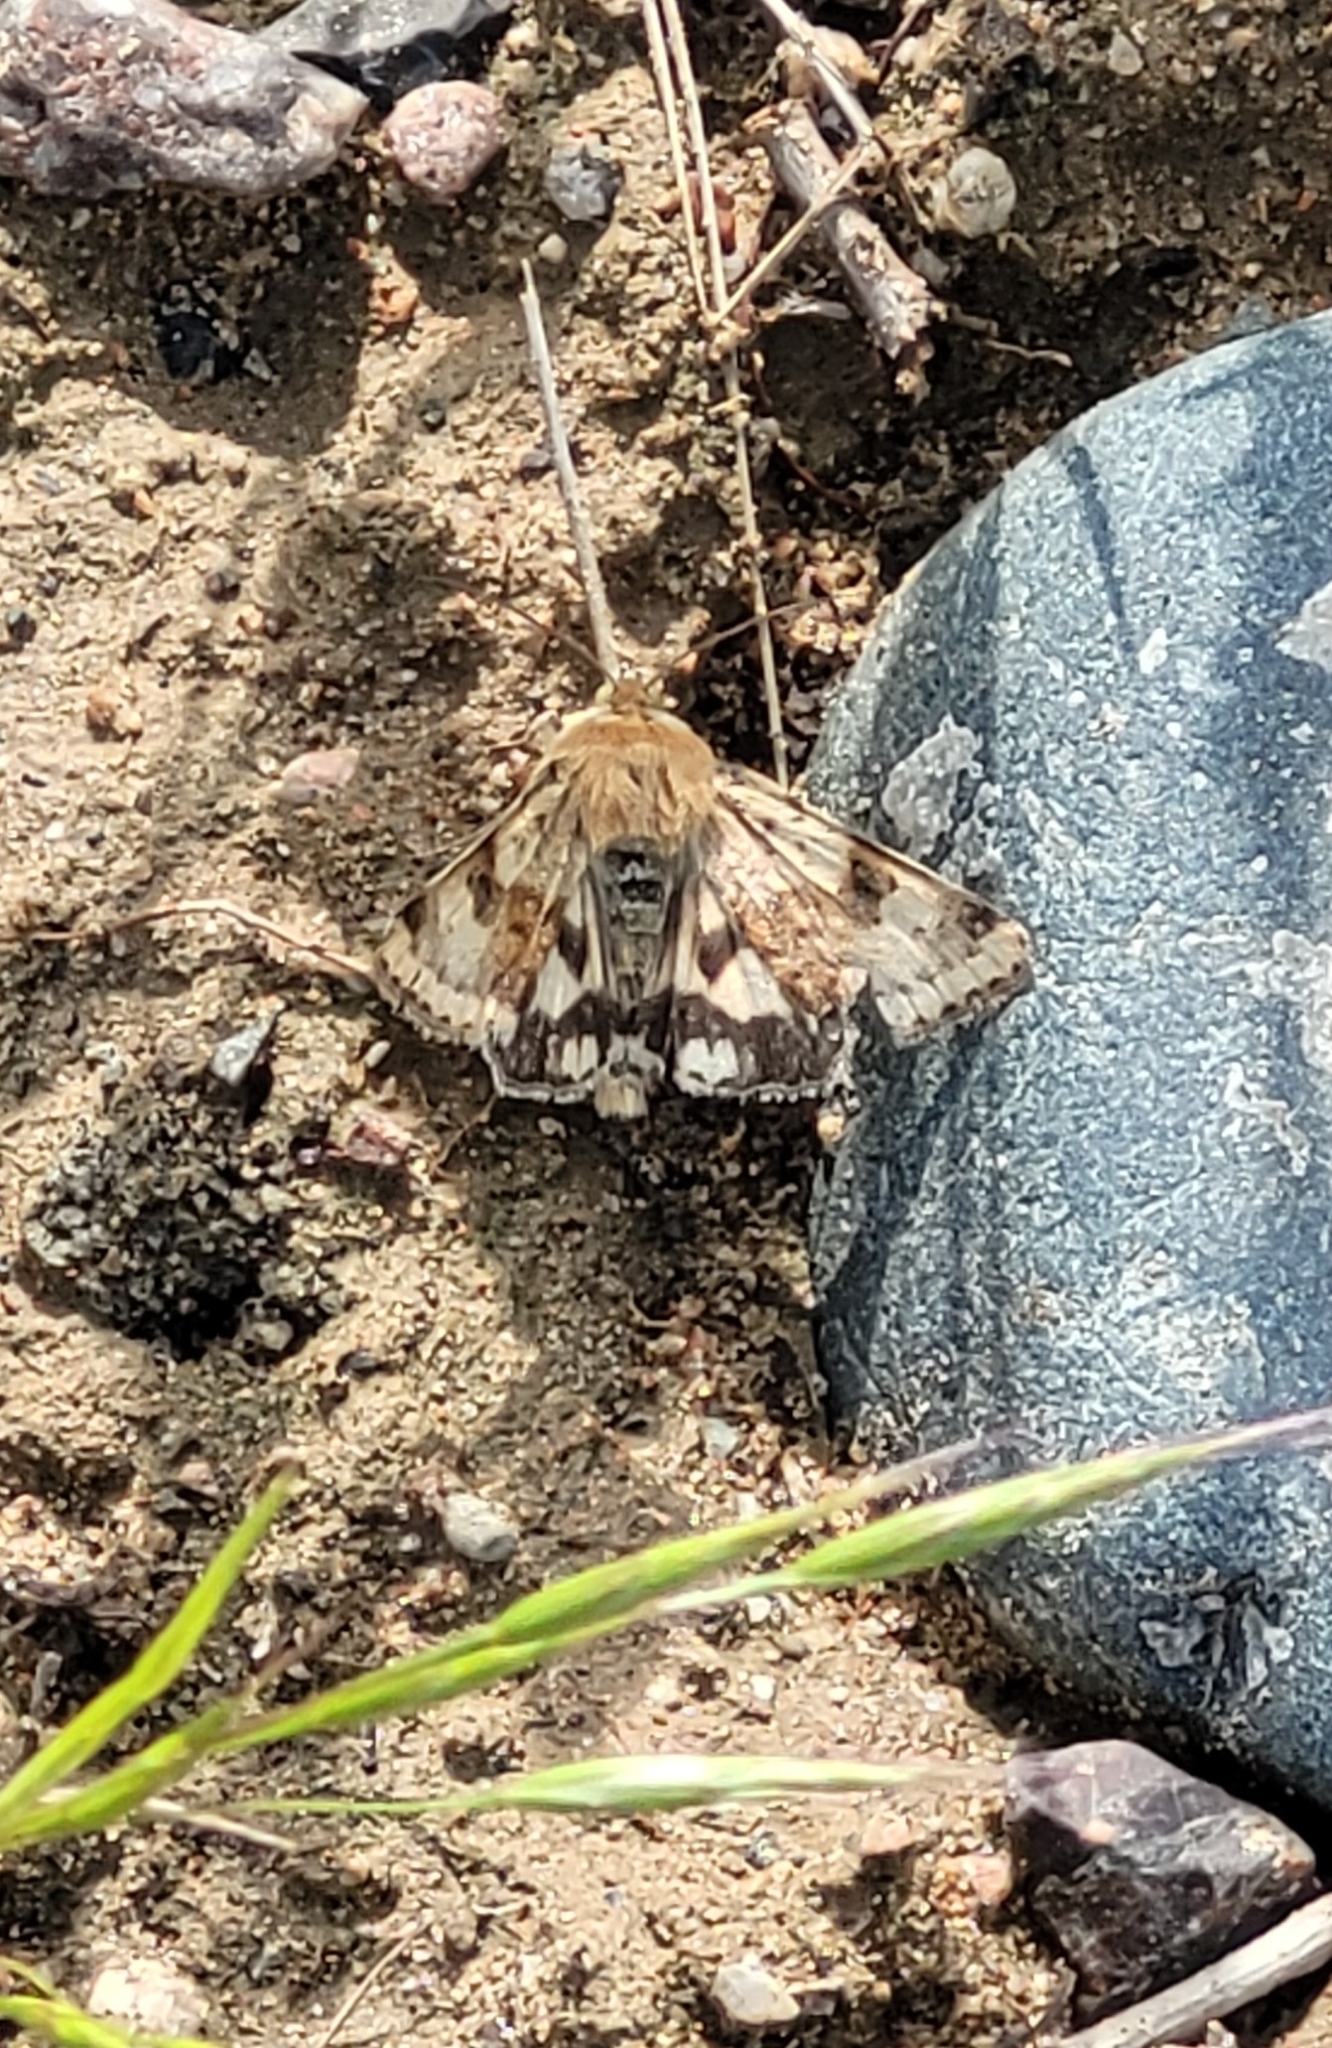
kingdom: Animalia
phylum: Arthropoda
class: Insecta
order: Lepidoptera
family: Noctuidae
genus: Heliothis
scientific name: Heliothis viriplaca
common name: Marbled clover
